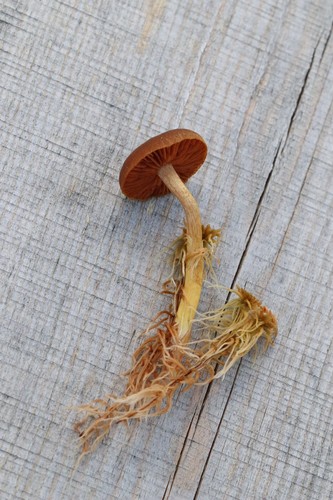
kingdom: Fungi
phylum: Basidiomycota
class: Agaricomycetes
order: Agaricales
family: Cortinariaceae
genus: Cortinarius
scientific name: Cortinarius
